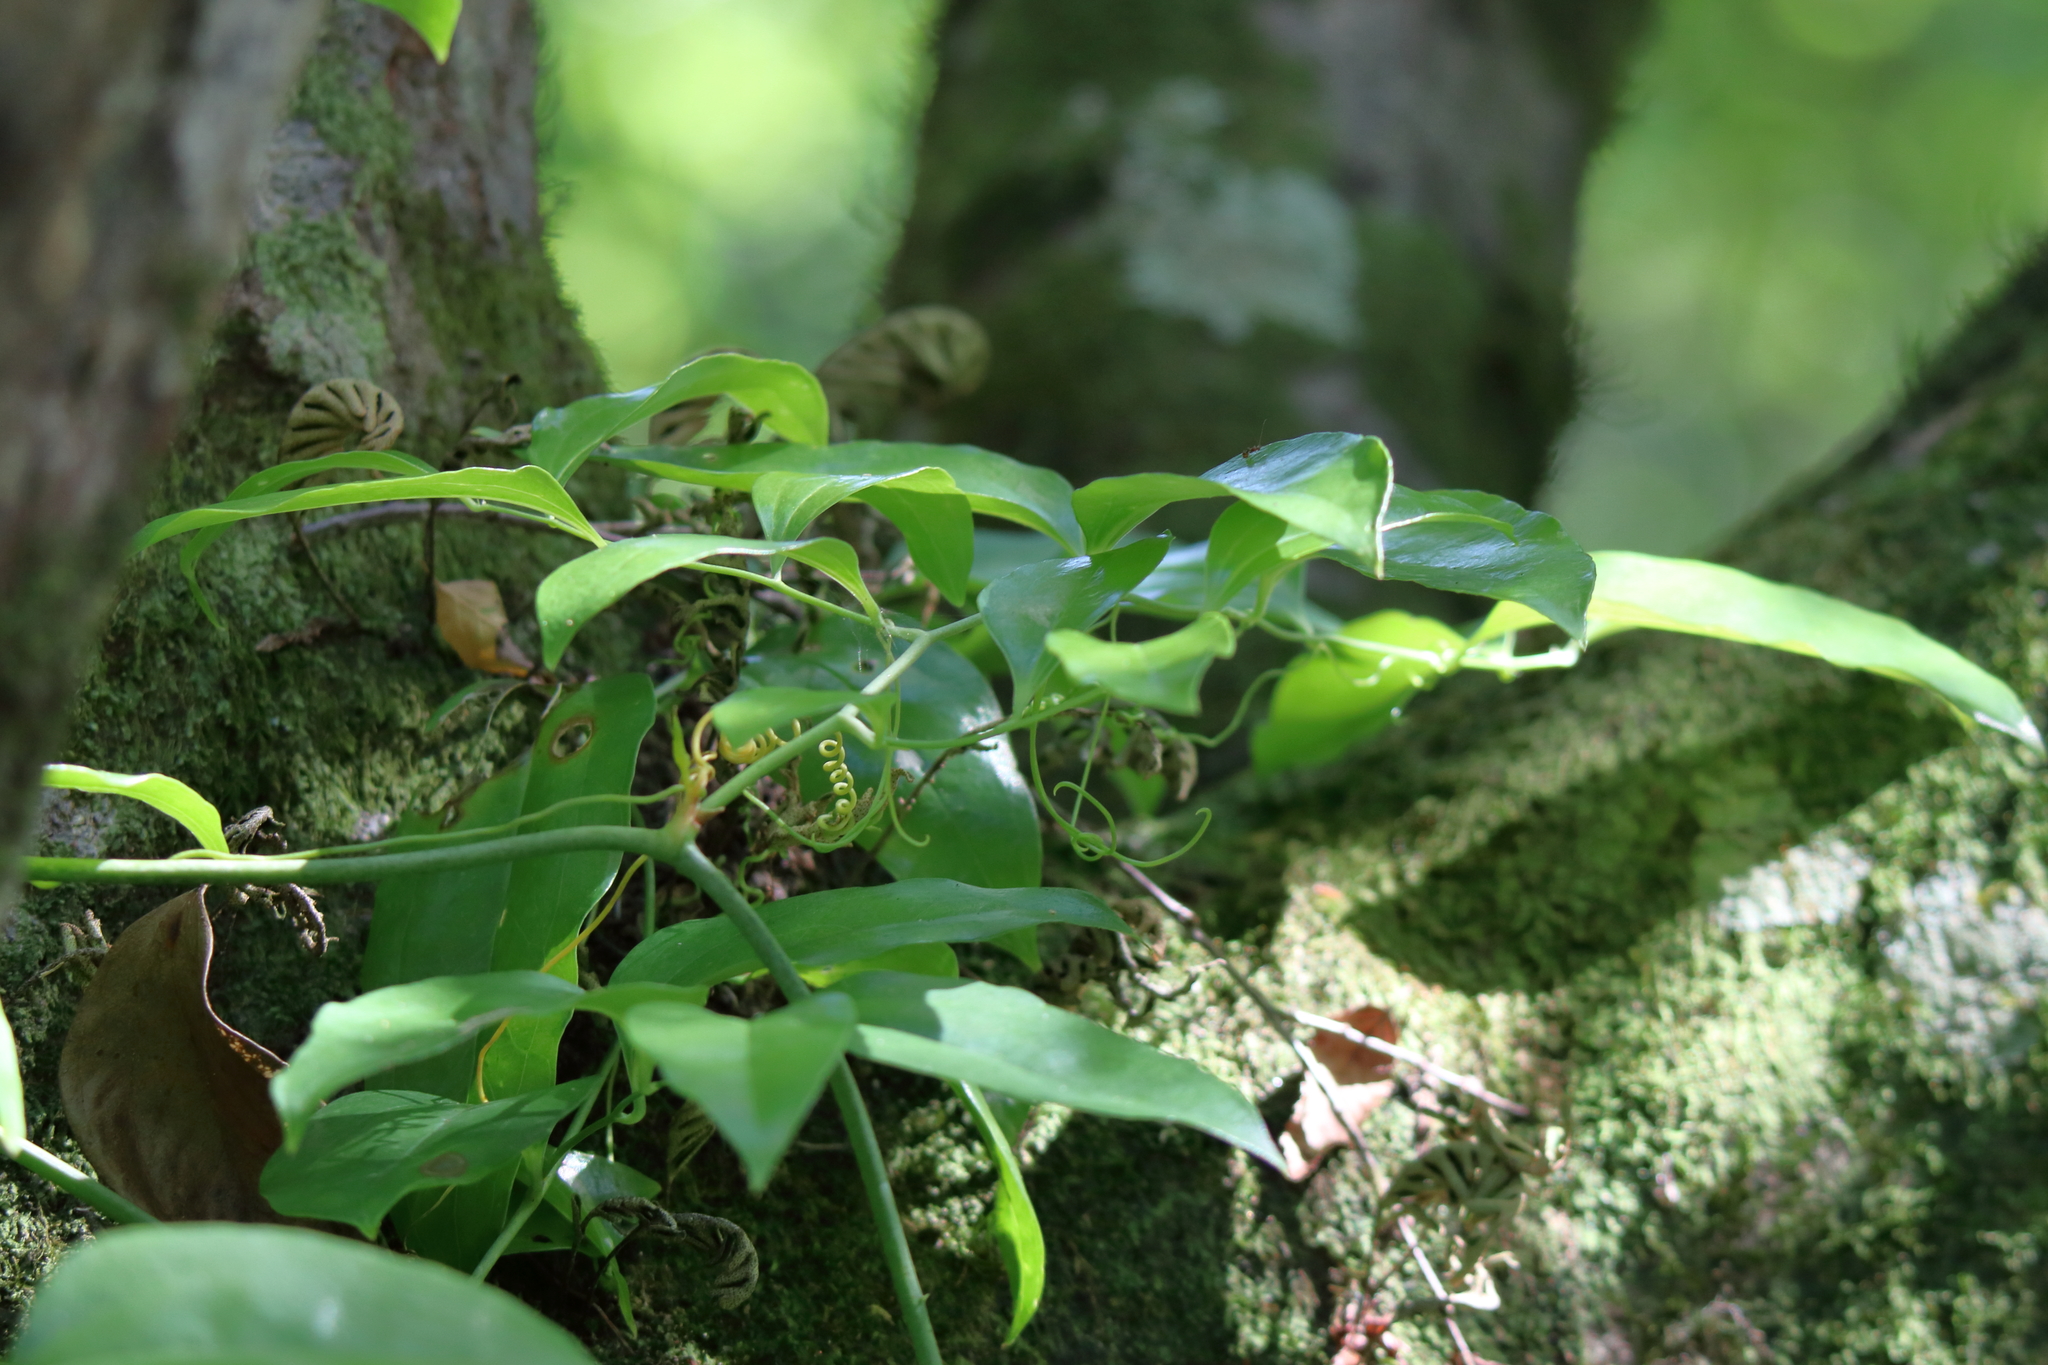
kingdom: Plantae
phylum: Tracheophyta
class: Liliopsida
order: Liliales
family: Smilacaceae
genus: Smilax
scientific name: Smilax maritima
